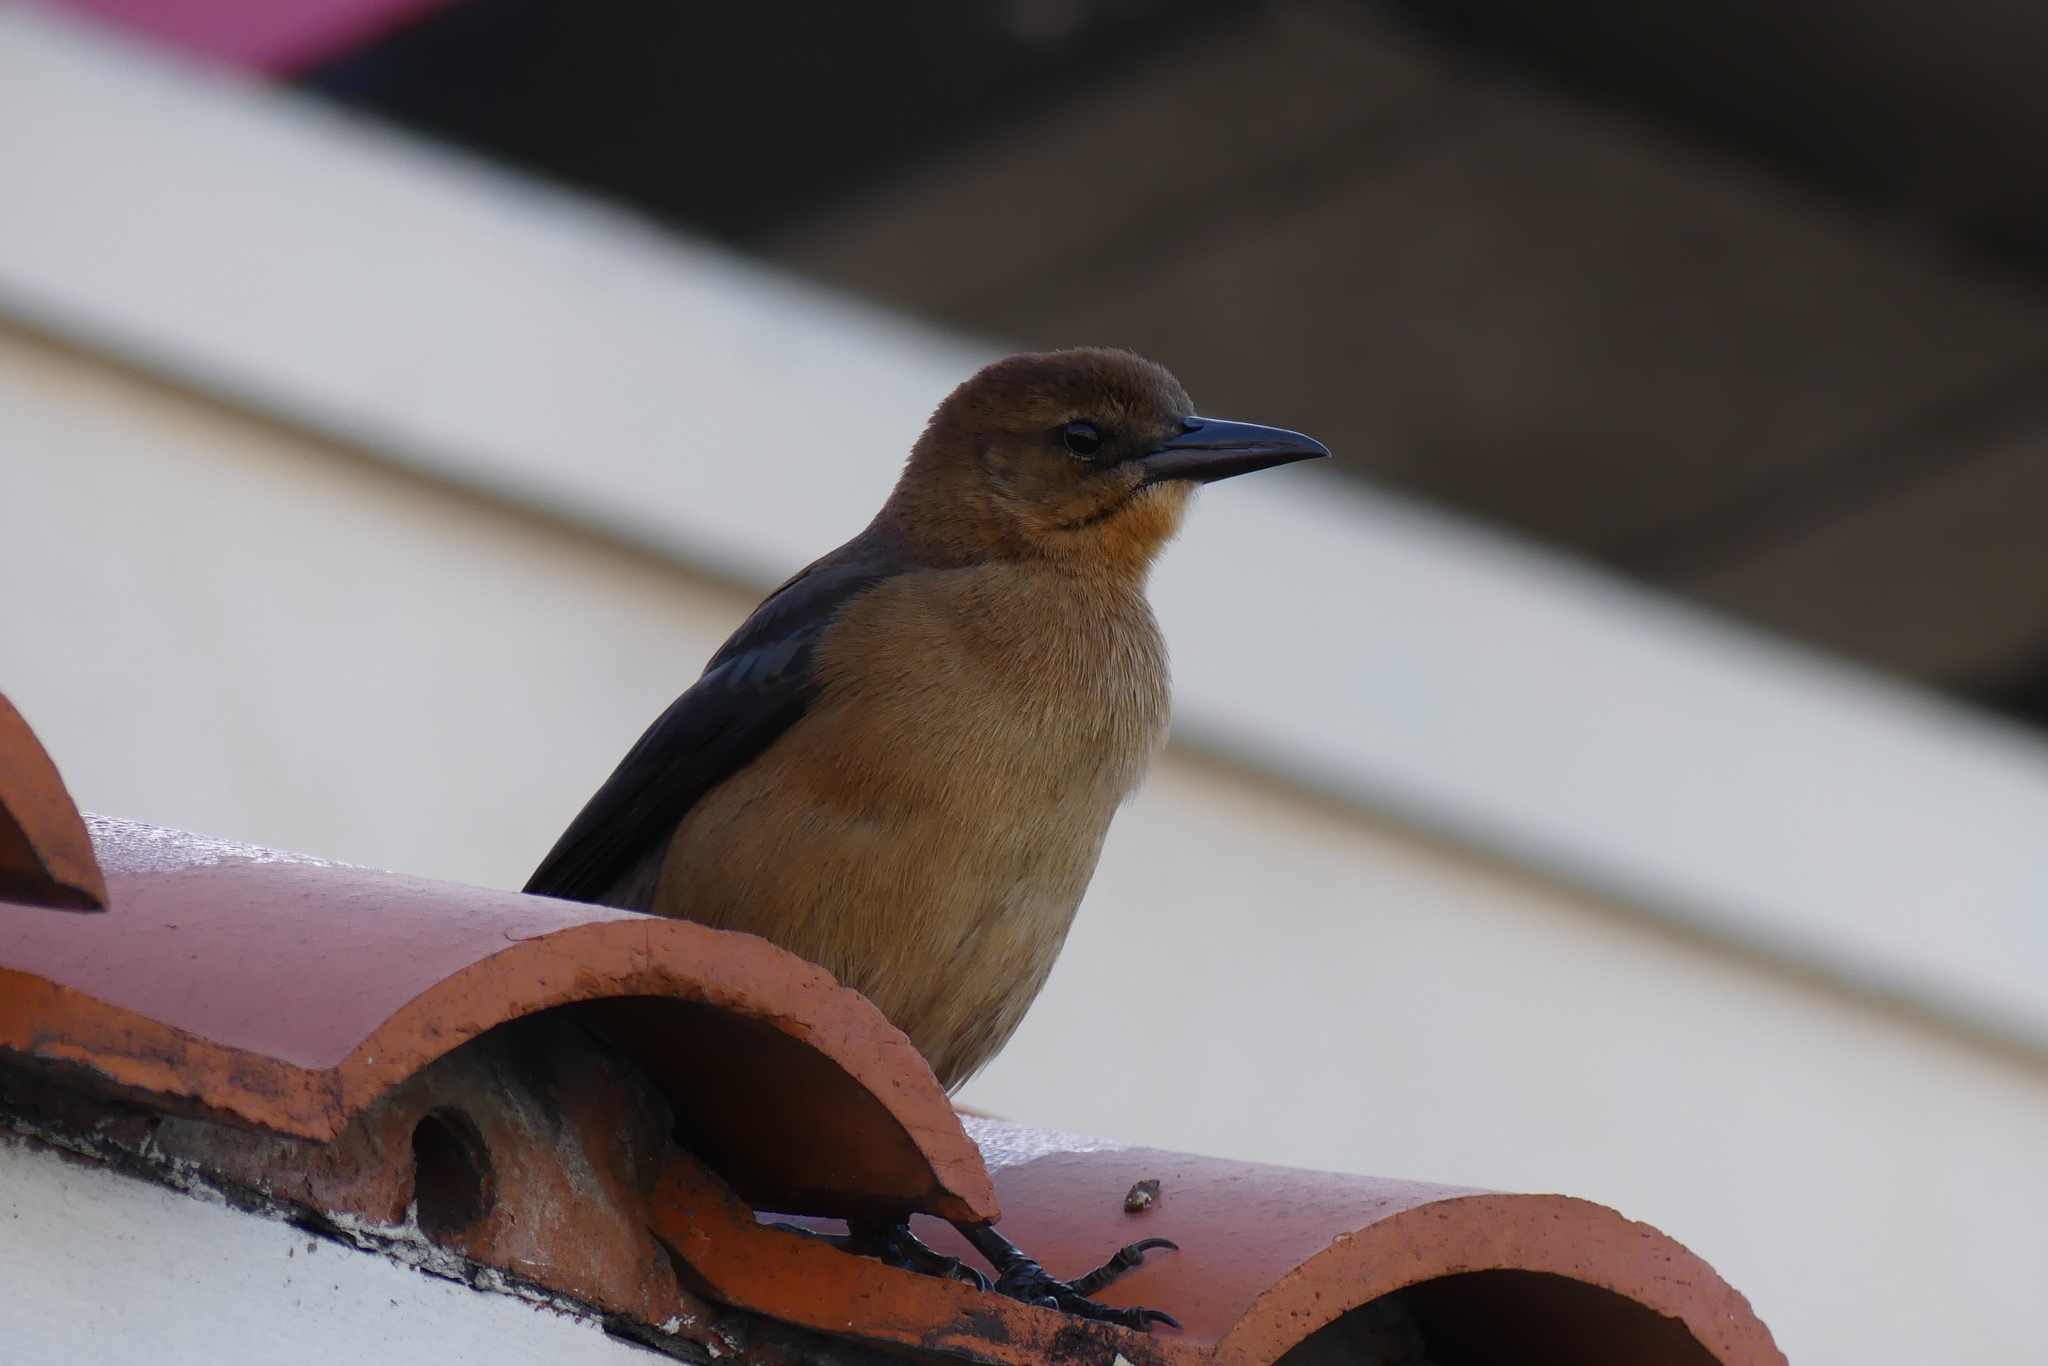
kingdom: Animalia
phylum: Chordata
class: Aves
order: Passeriformes
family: Icteridae
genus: Quiscalus
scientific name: Quiscalus major
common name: Boat-tailed grackle
